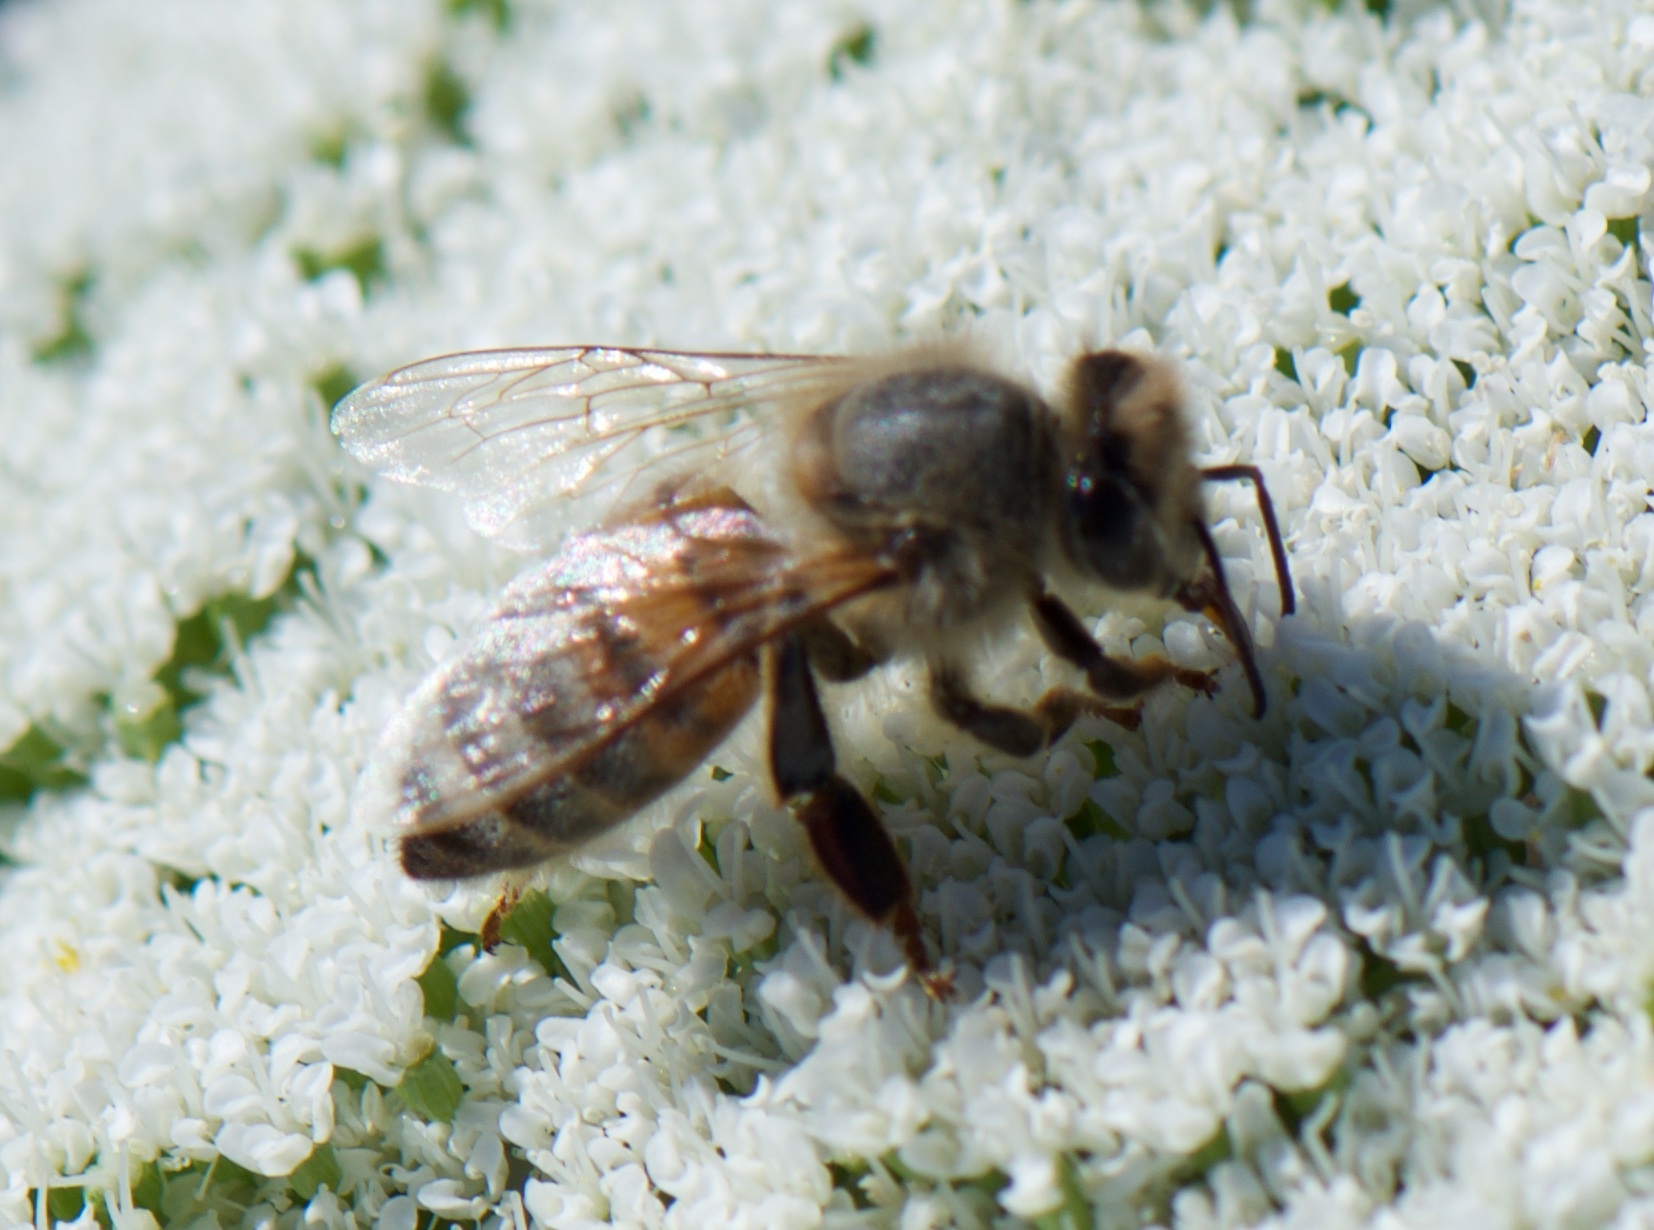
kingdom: Animalia
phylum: Arthropoda
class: Insecta
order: Hymenoptera
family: Apidae
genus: Apis
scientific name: Apis mellifera
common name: Honey bee
